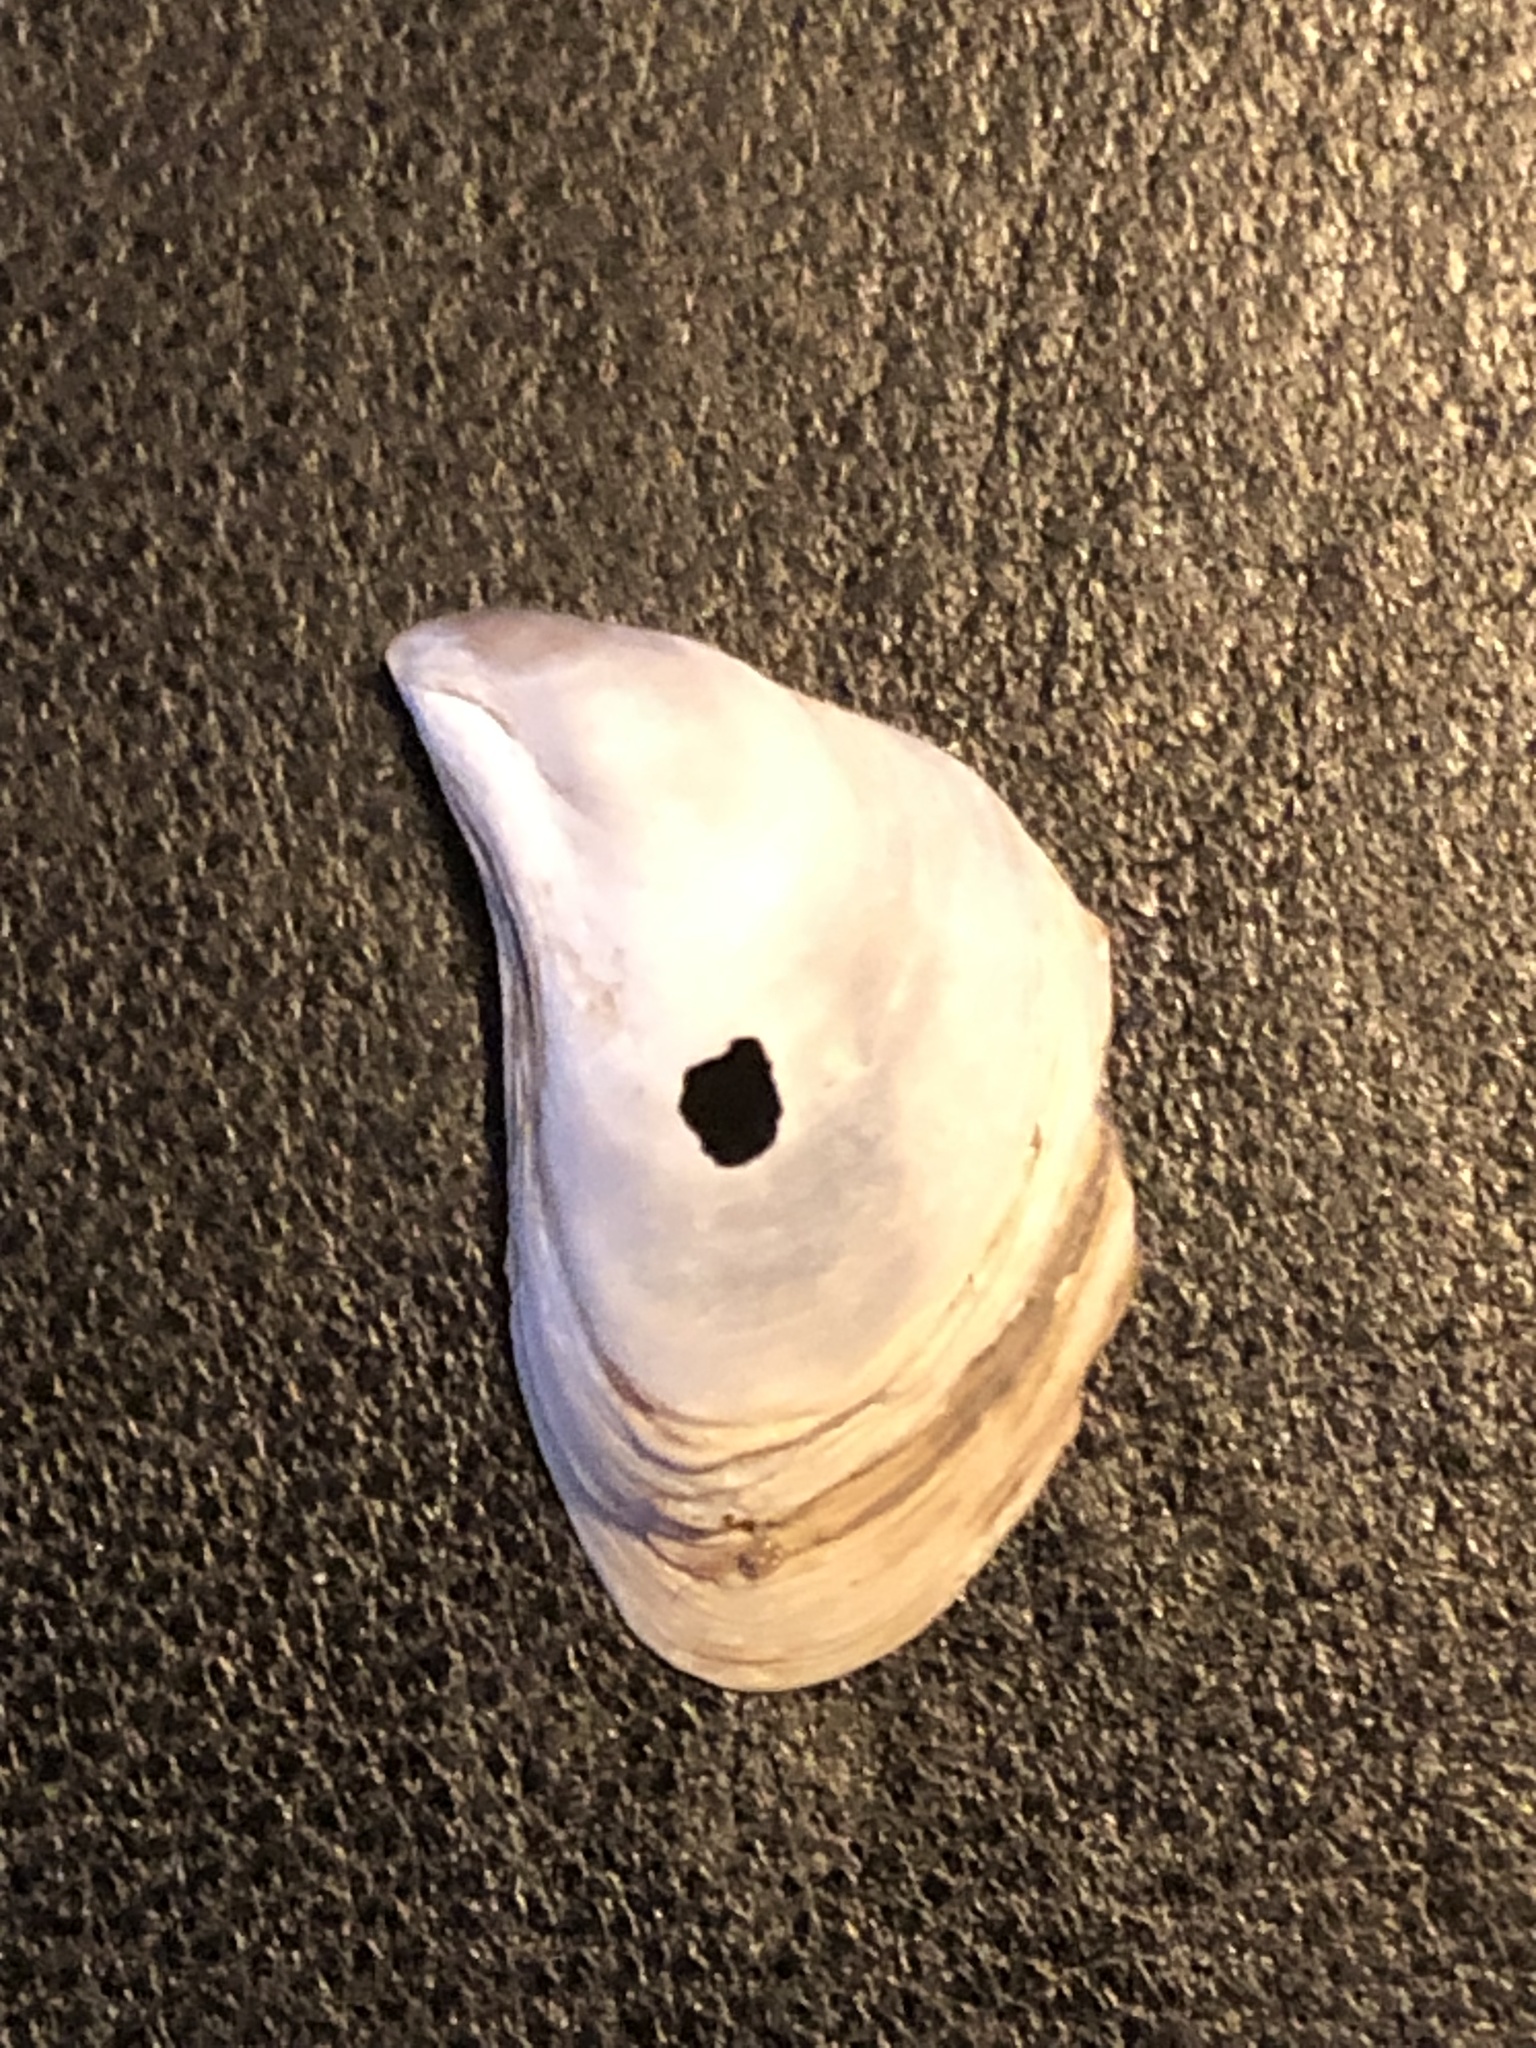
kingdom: Animalia
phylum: Mollusca
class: Bivalvia
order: Myida
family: Dreissenidae
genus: Dreissena
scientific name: Dreissena bugensis
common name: Quagga mussel
